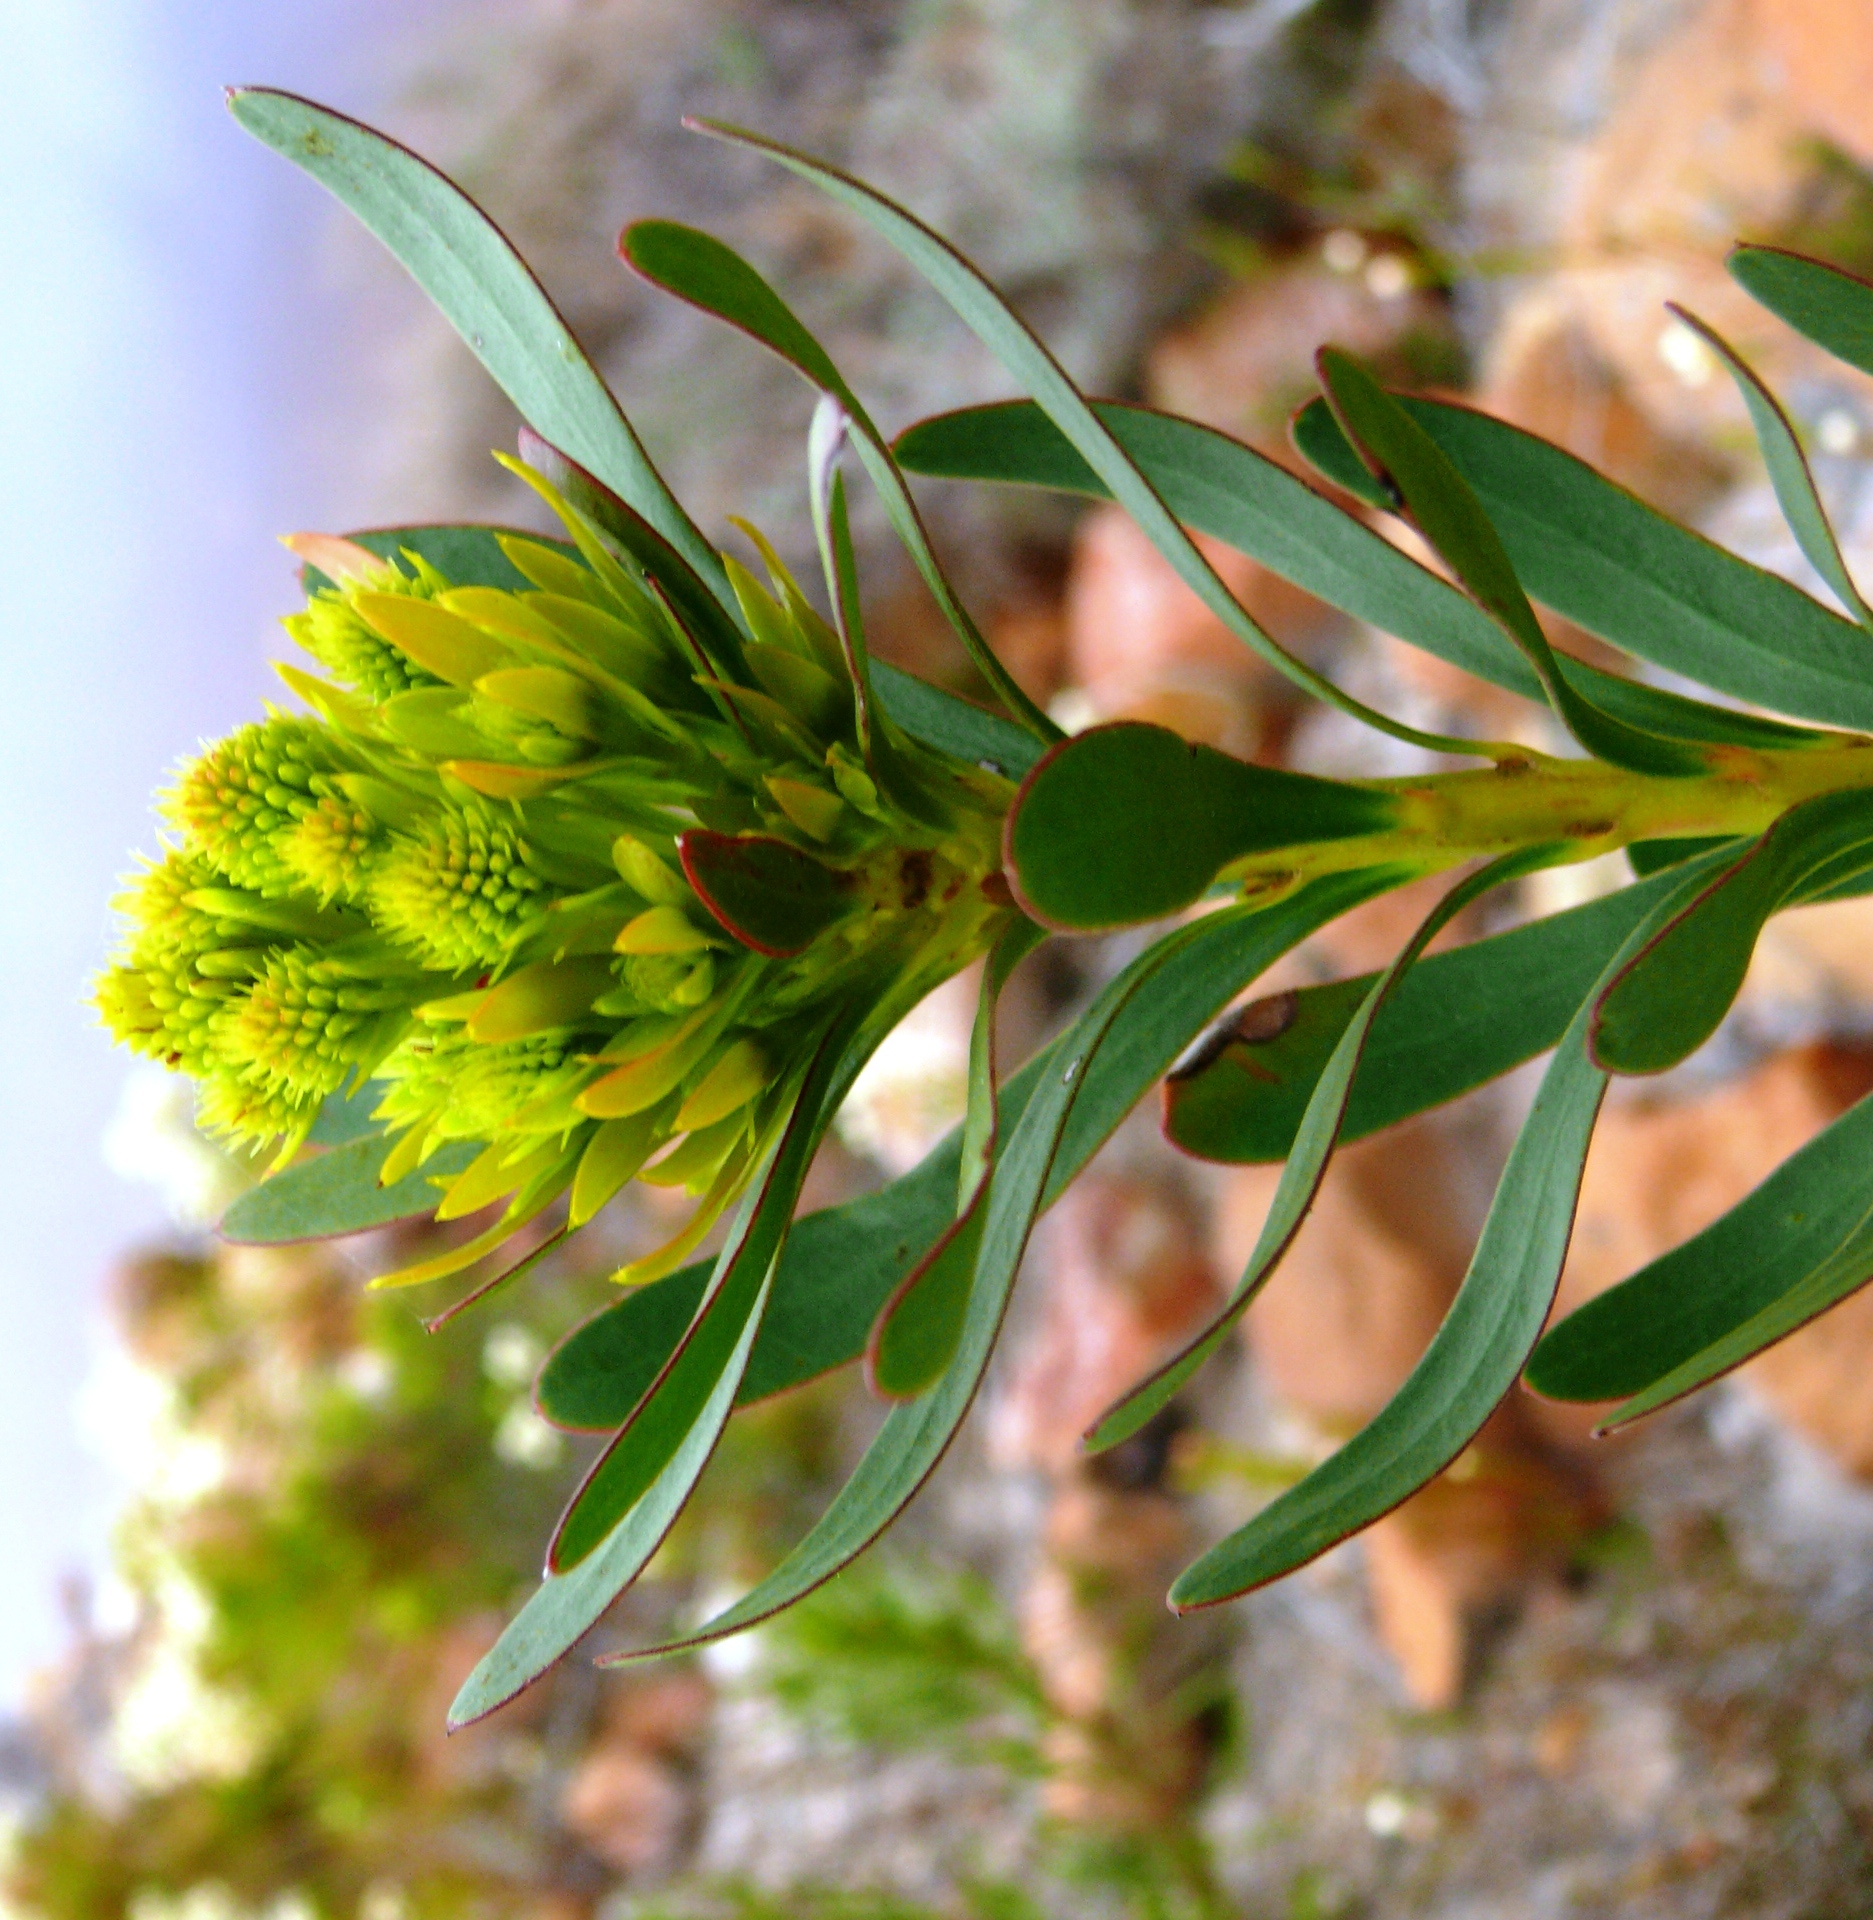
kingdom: Plantae
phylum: Tracheophyta
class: Magnoliopsida
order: Proteales
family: Proteaceae
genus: Aulax
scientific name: Aulax umbellata
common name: Broad-leaf featherbush
